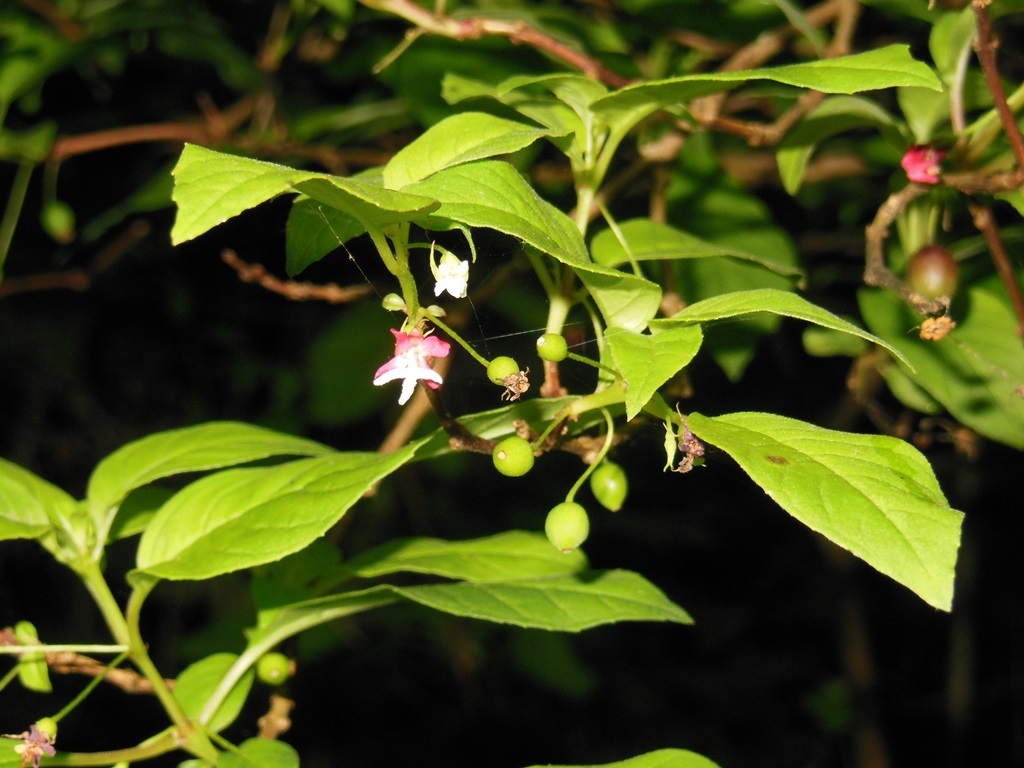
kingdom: Plantae
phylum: Tracheophyta
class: Magnoliopsida
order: Myrtales
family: Onagraceae
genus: Fuchsia
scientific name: Fuchsia encliandra
